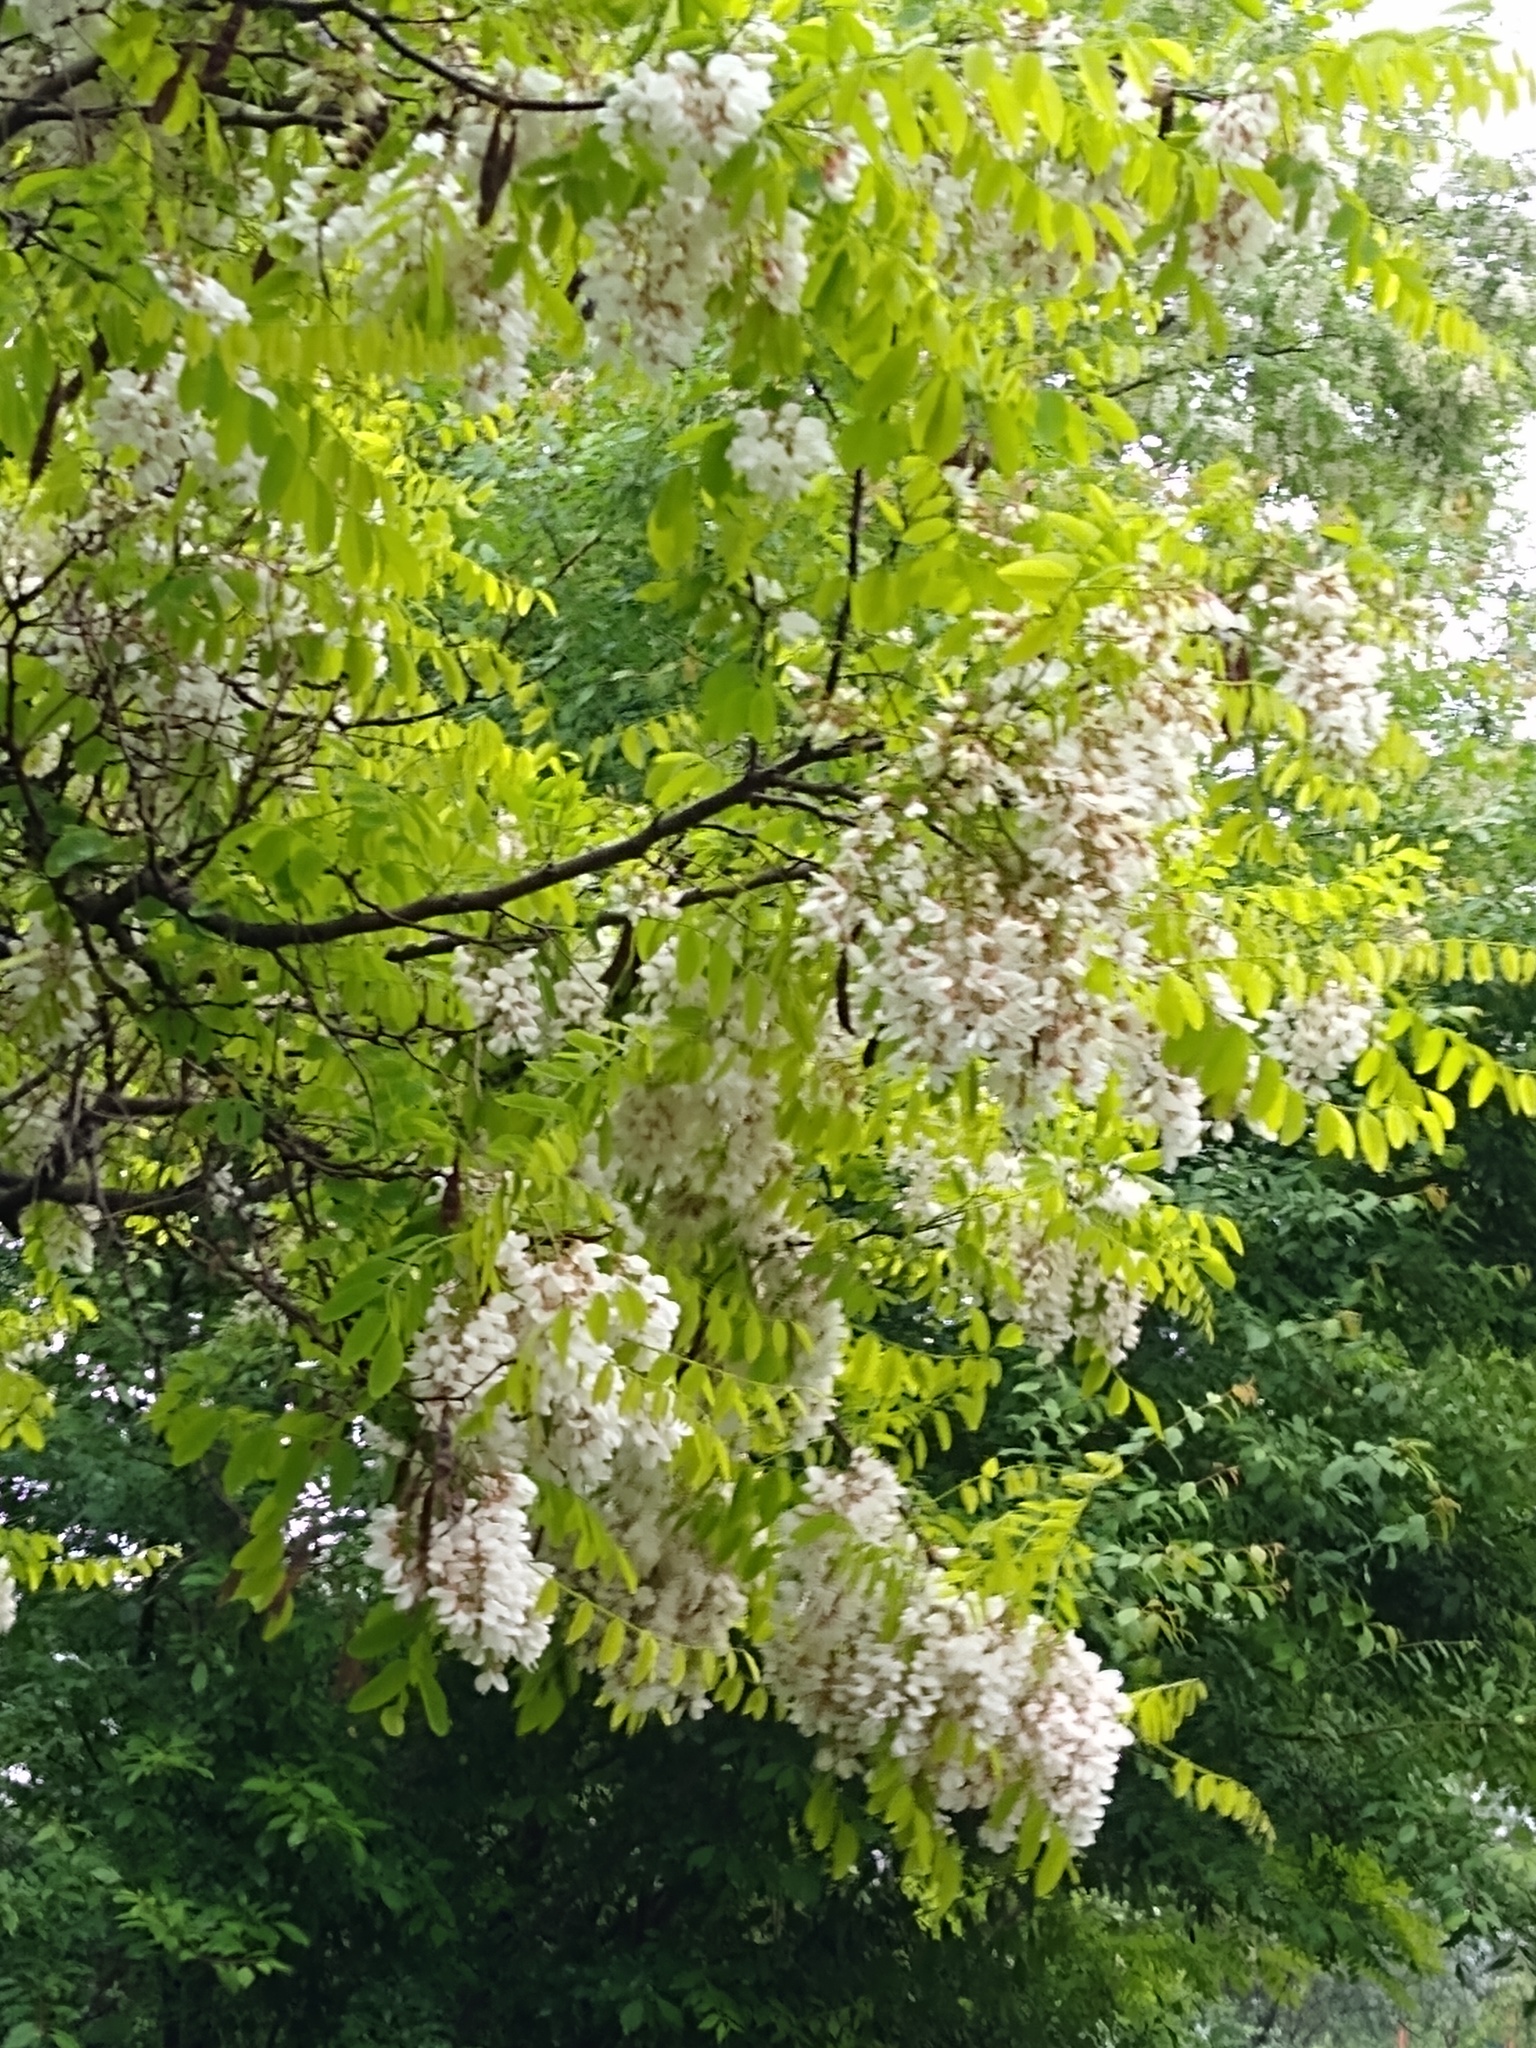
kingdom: Plantae
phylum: Tracheophyta
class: Magnoliopsida
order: Fabales
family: Fabaceae
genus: Robinia
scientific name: Robinia pseudoacacia
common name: Black locust
